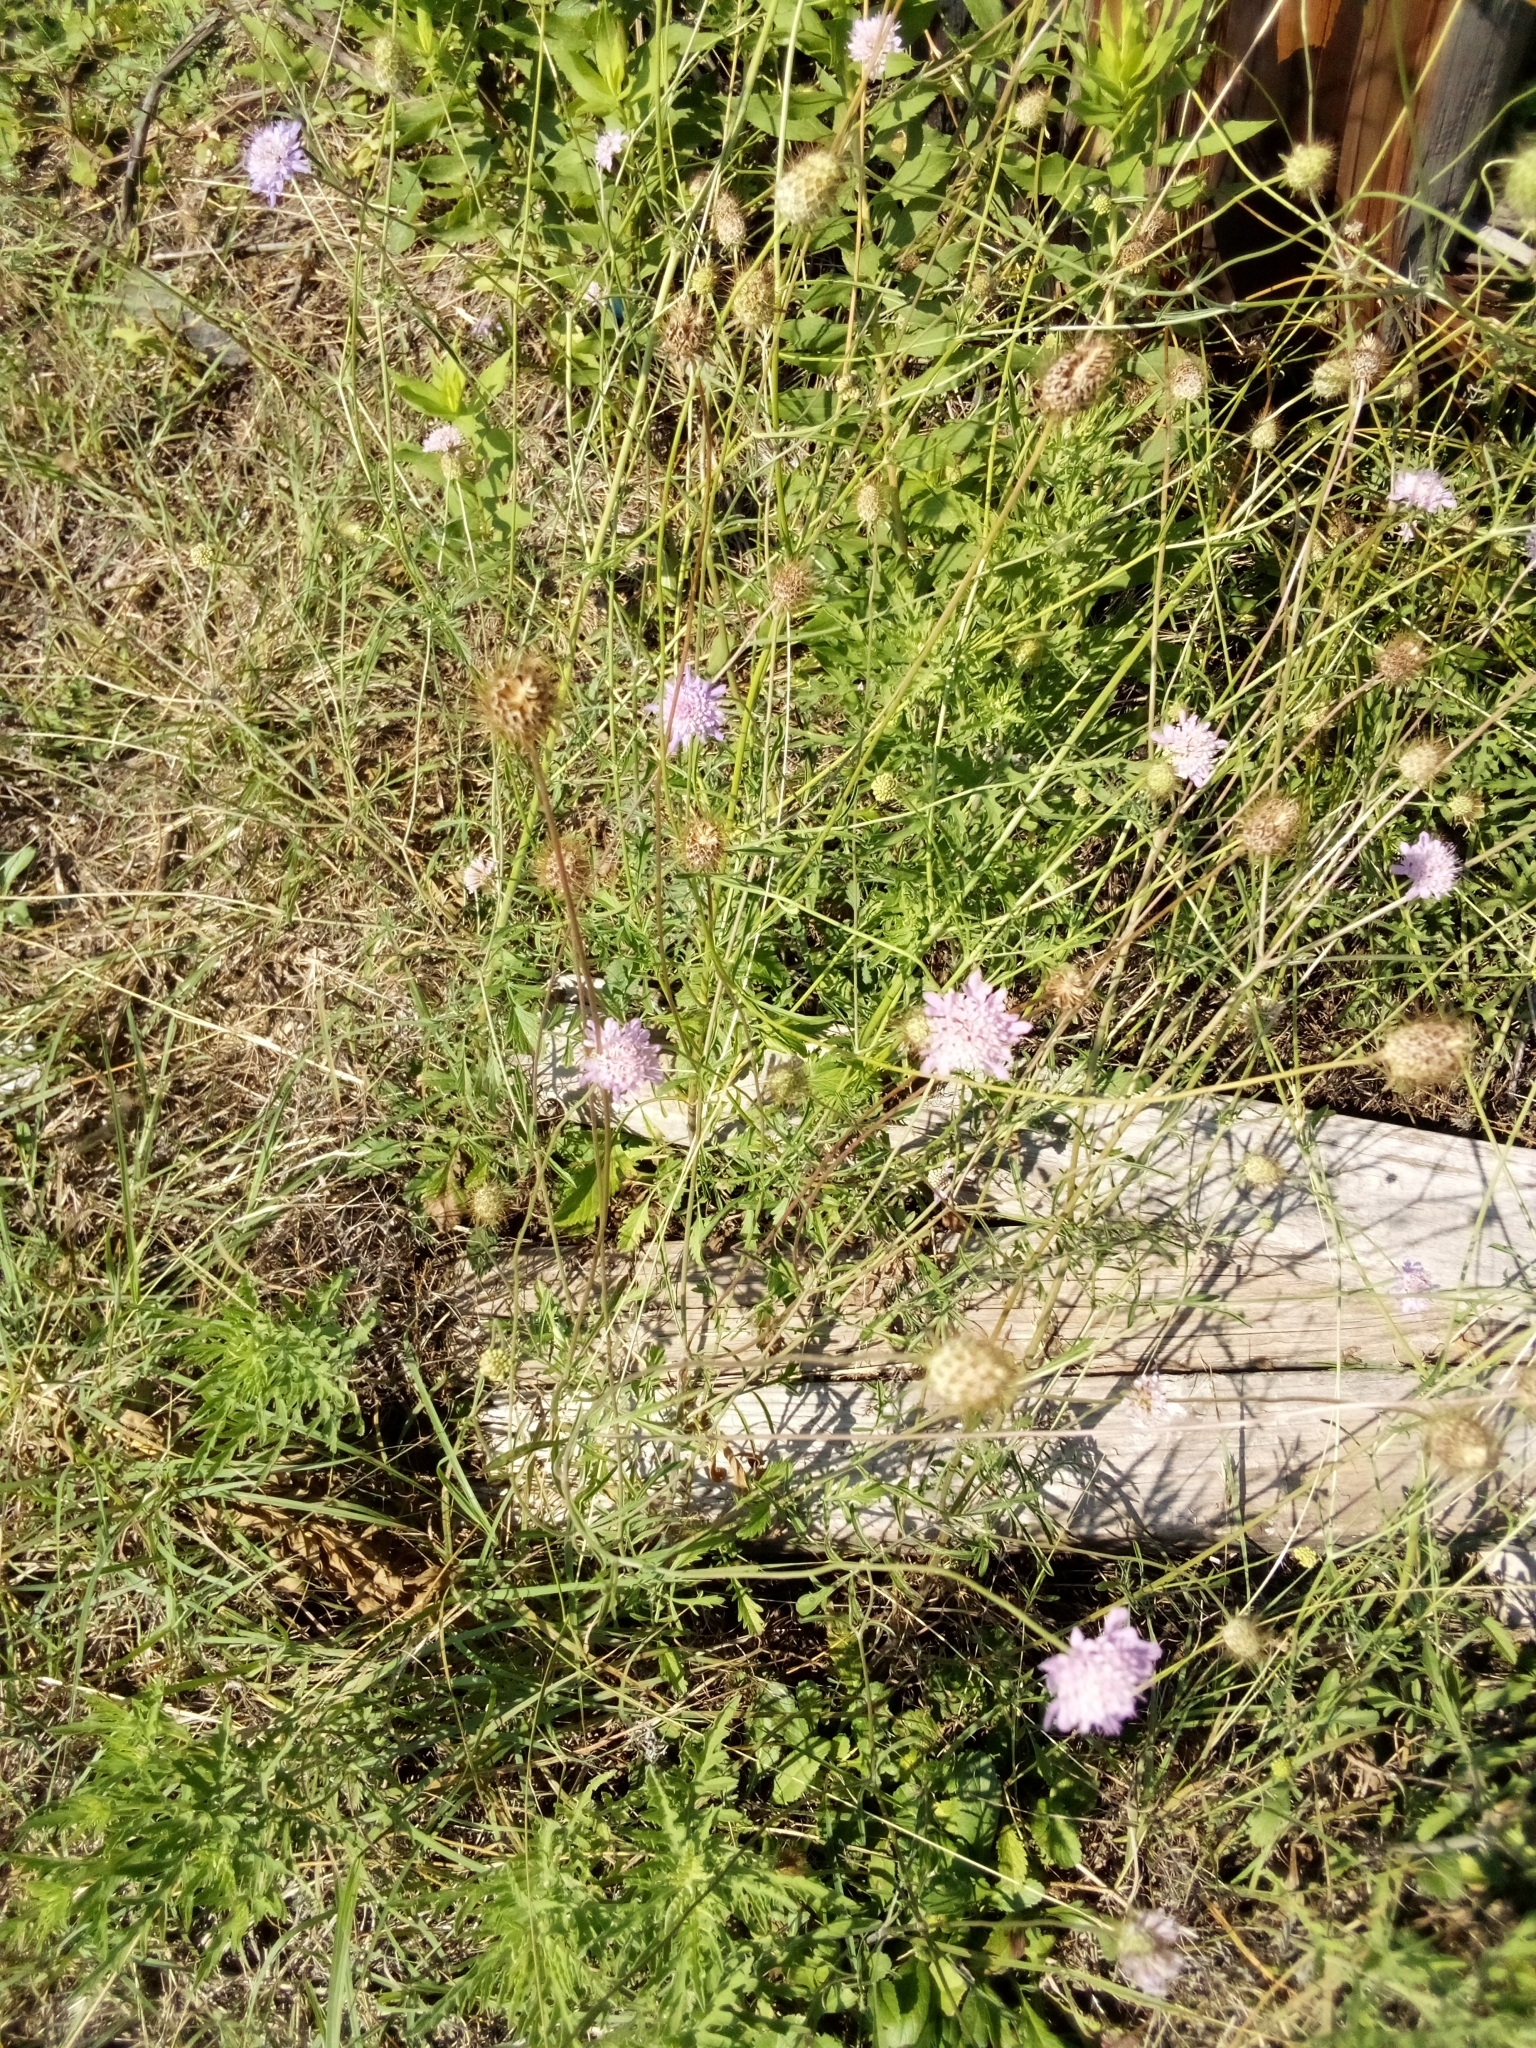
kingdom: Plantae
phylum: Tracheophyta
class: Magnoliopsida
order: Dipsacales
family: Caprifoliaceae
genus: Sixalix
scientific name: Sixalix atropurpurea
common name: Sweet scabious
